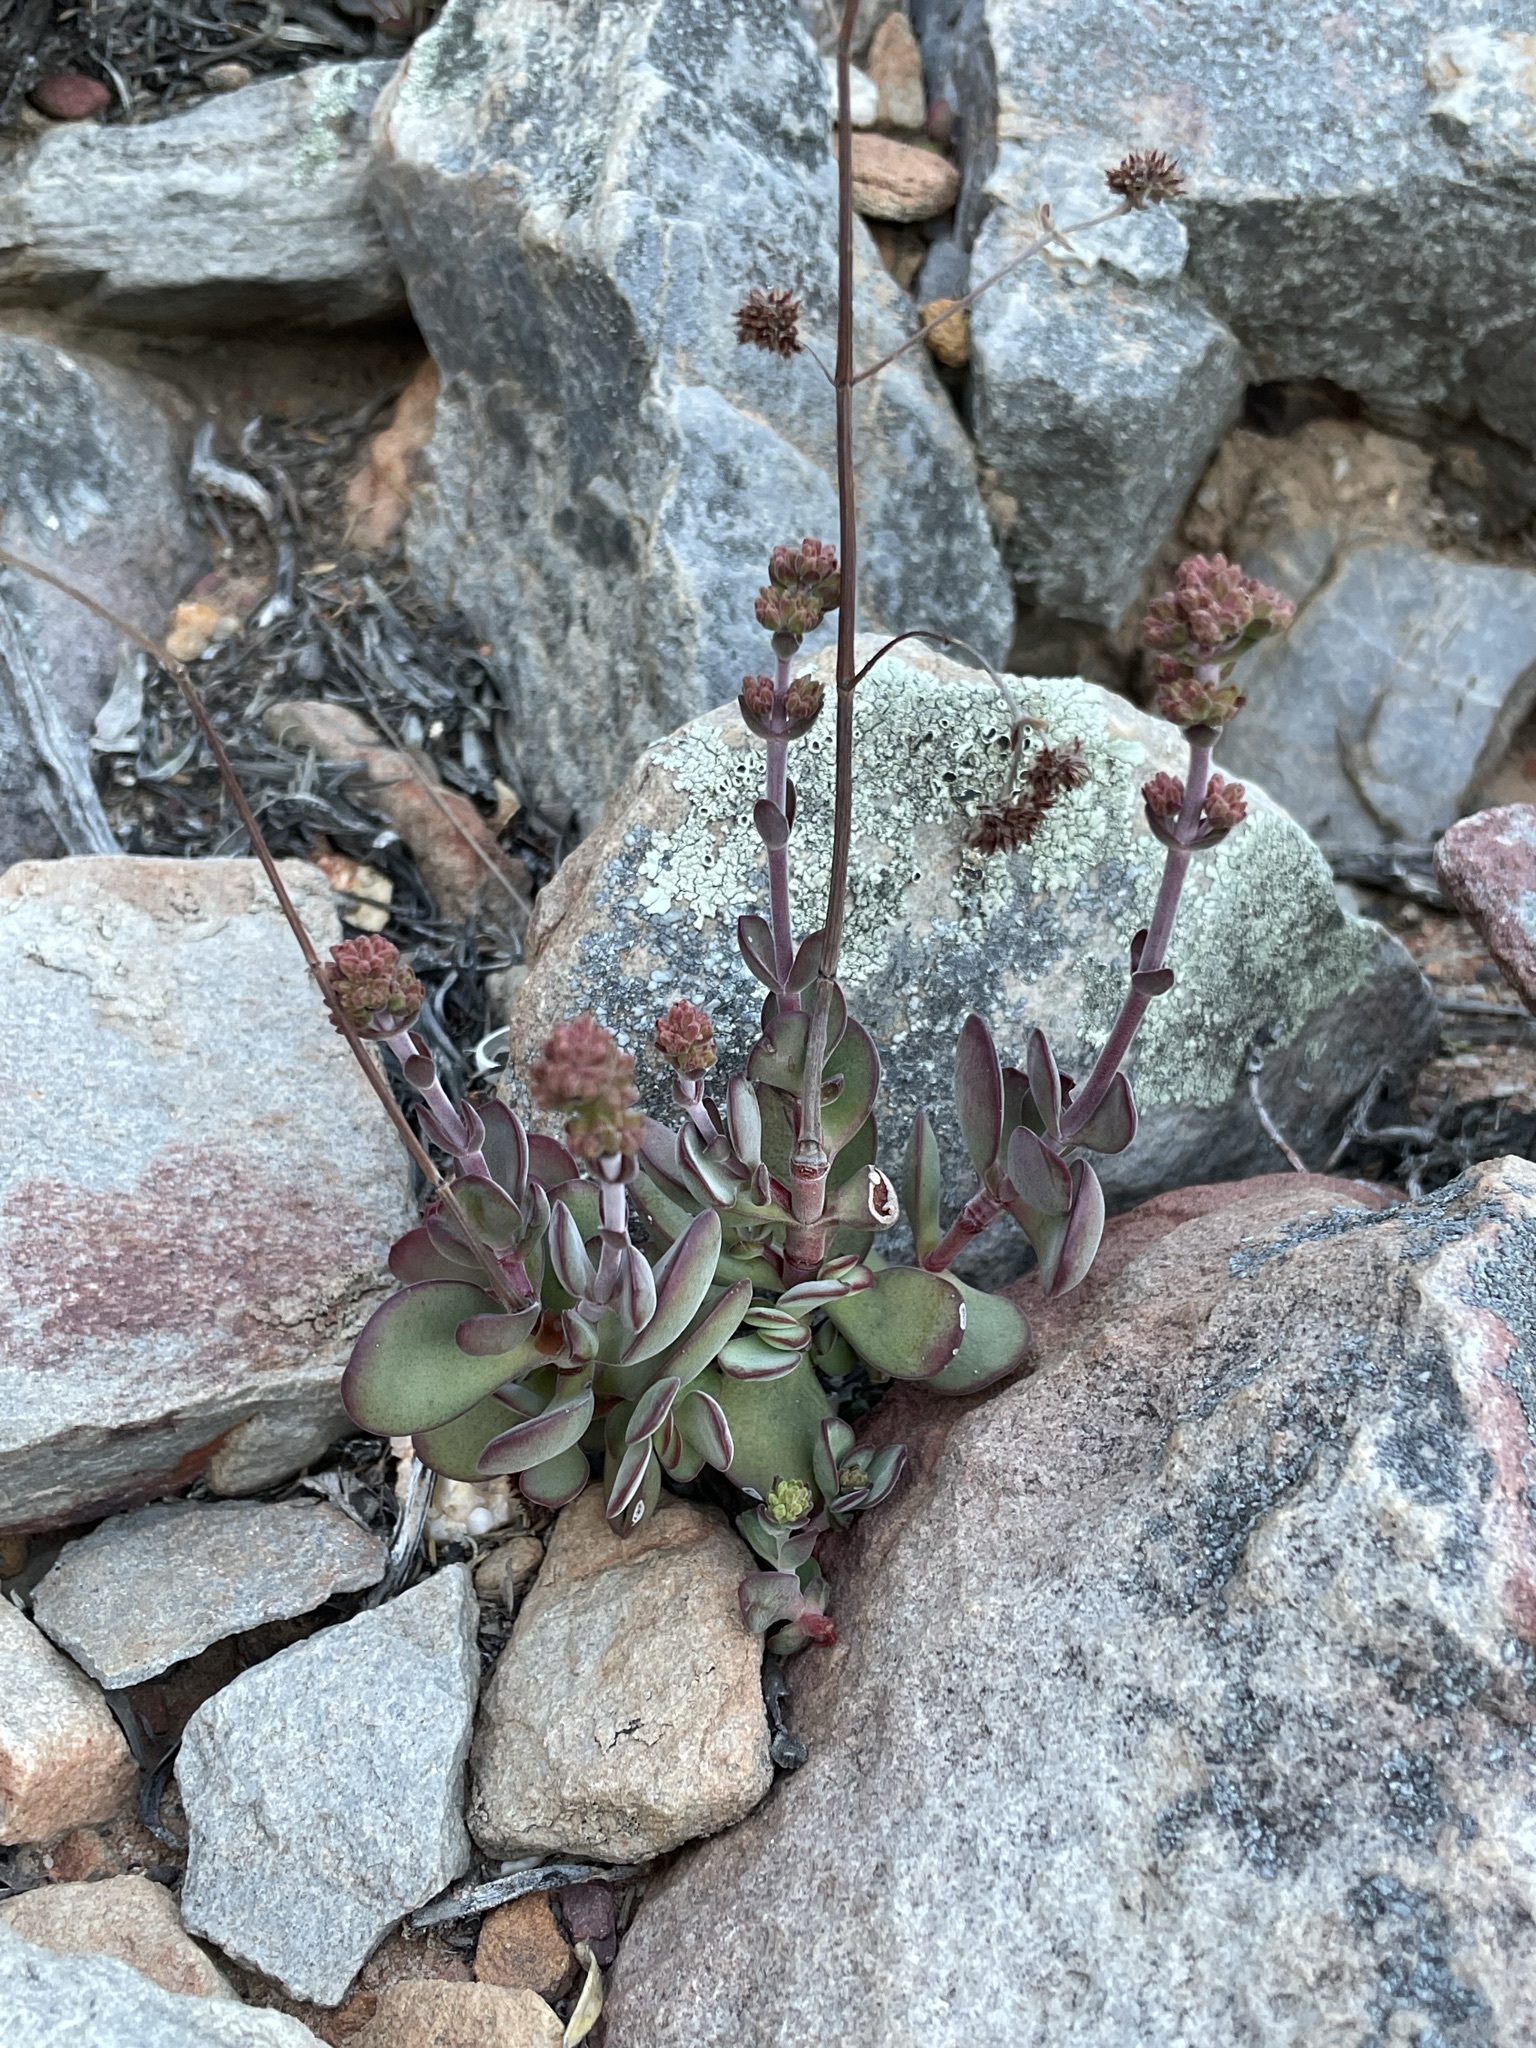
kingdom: Plantae
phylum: Tracheophyta
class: Magnoliopsida
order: Saxifragales
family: Crassulaceae
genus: Crassula
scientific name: Crassula atropurpurea
